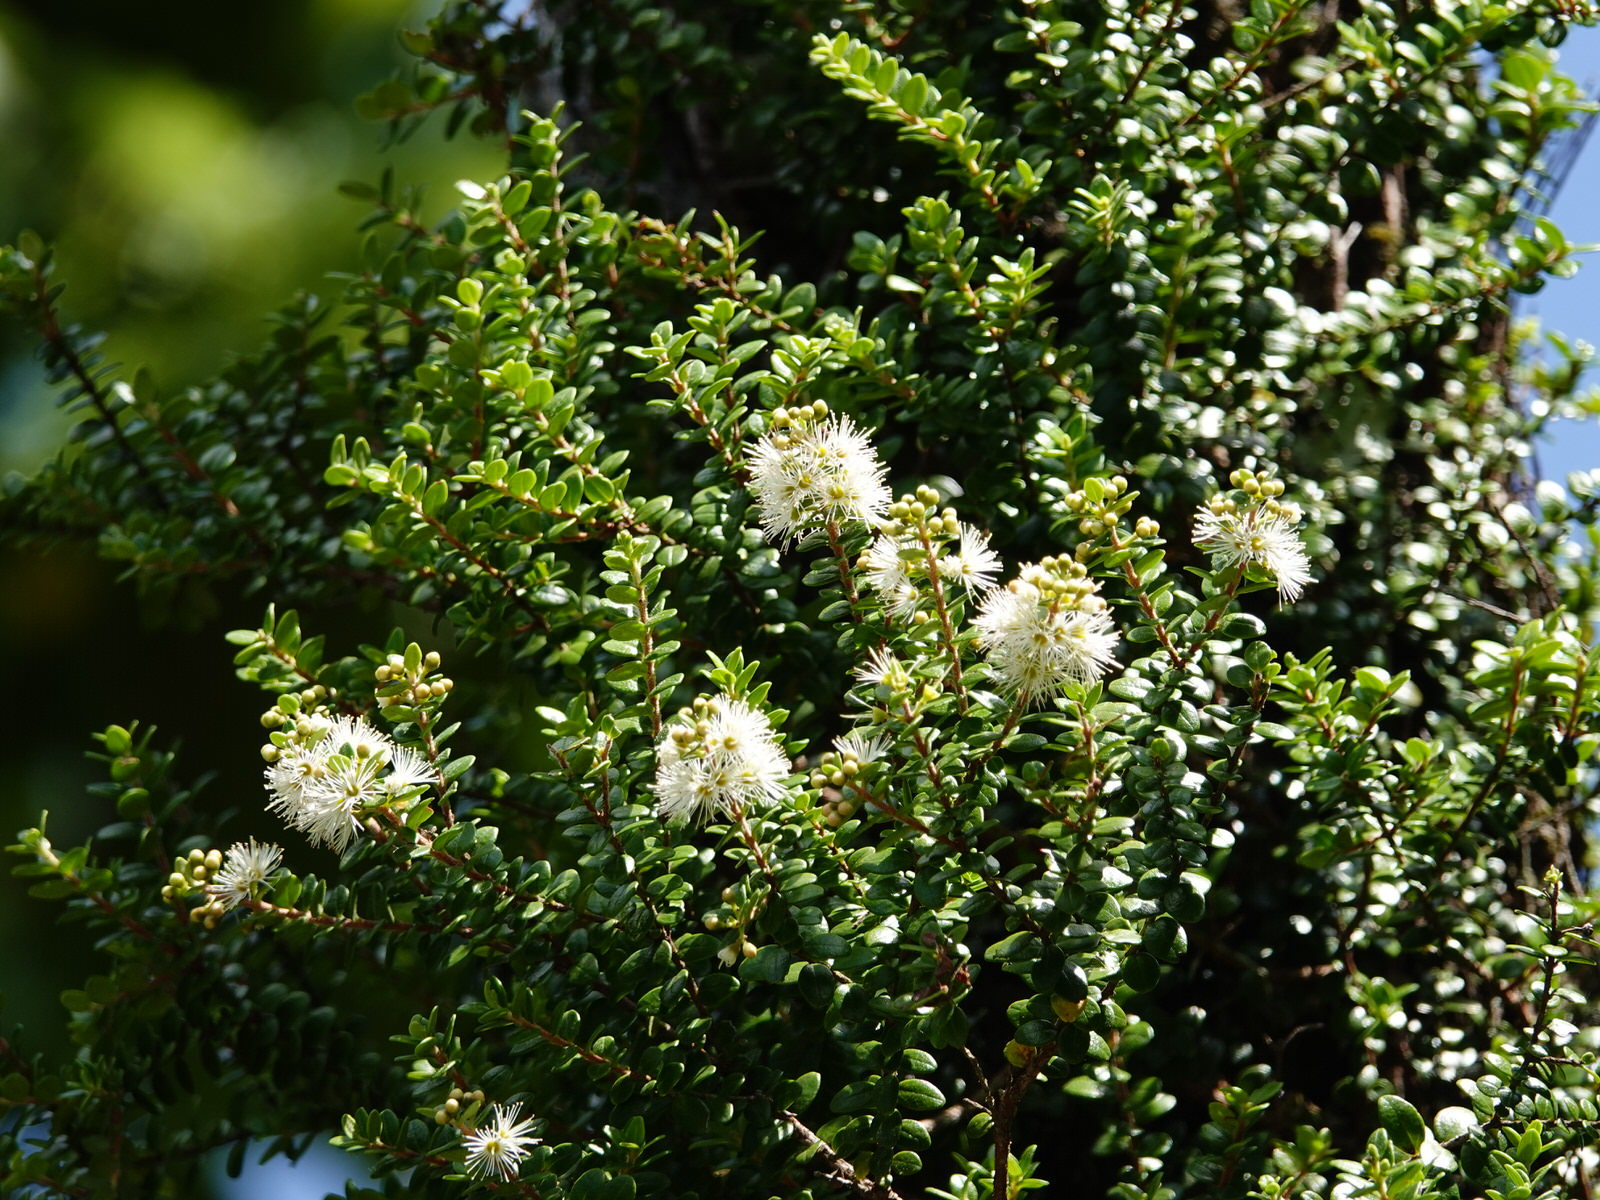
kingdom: Plantae
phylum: Tracheophyta
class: Magnoliopsida
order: Myrtales
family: Myrtaceae
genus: Metrosideros
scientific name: Metrosideros perforata
